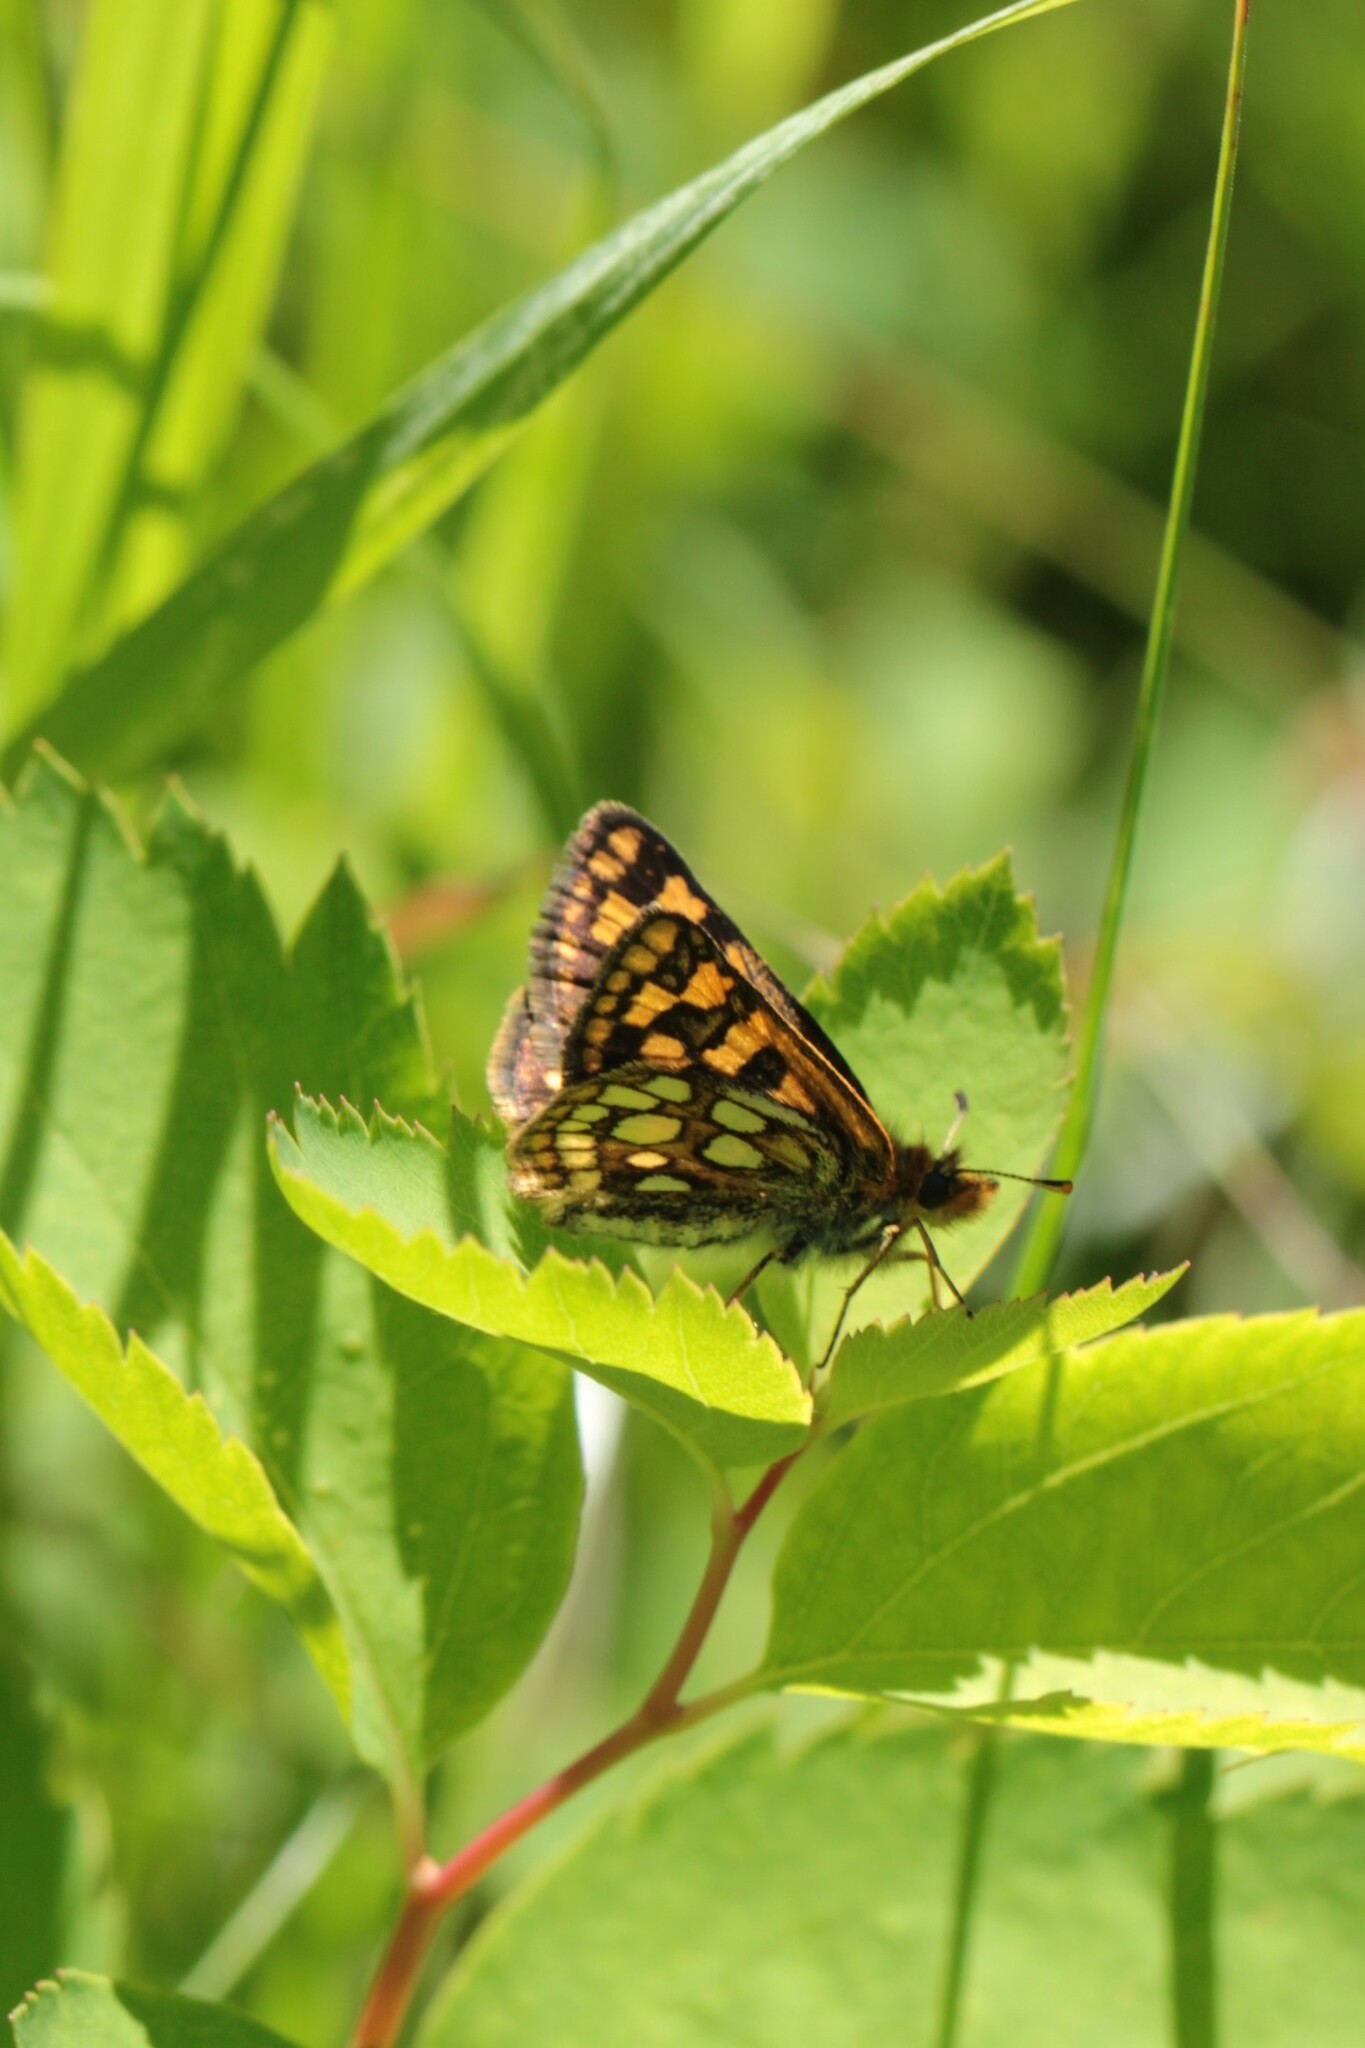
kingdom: Animalia
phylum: Arthropoda
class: Insecta
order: Lepidoptera
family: Hesperiidae
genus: Carterocephalus
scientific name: Carterocephalus skada
